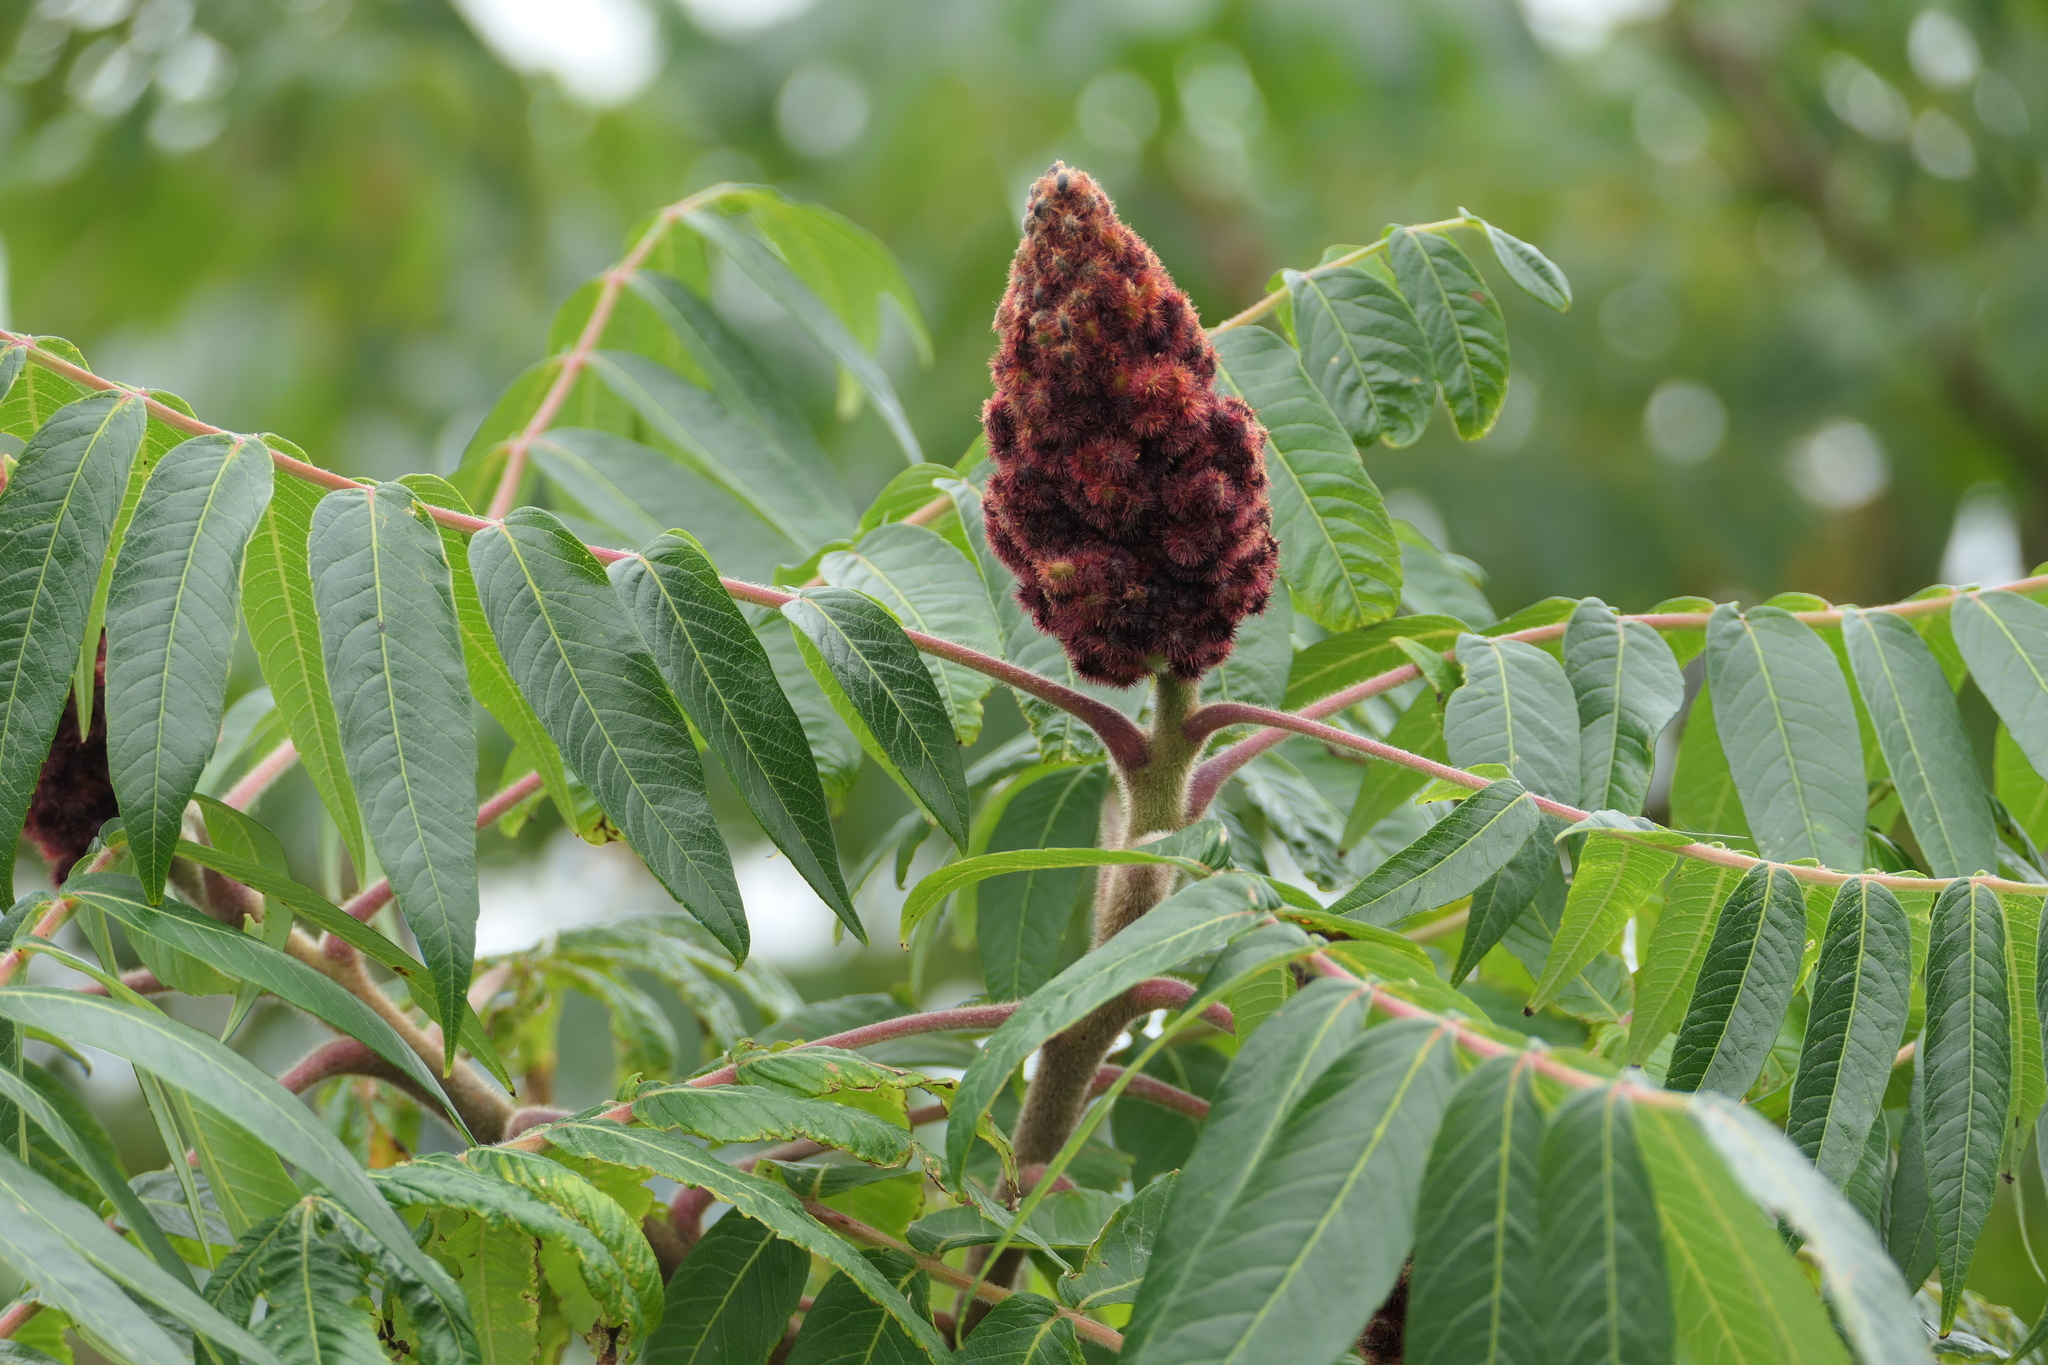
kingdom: Plantae
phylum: Tracheophyta
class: Magnoliopsida
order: Sapindales
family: Anacardiaceae
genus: Rhus
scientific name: Rhus typhina
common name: Staghorn sumac
